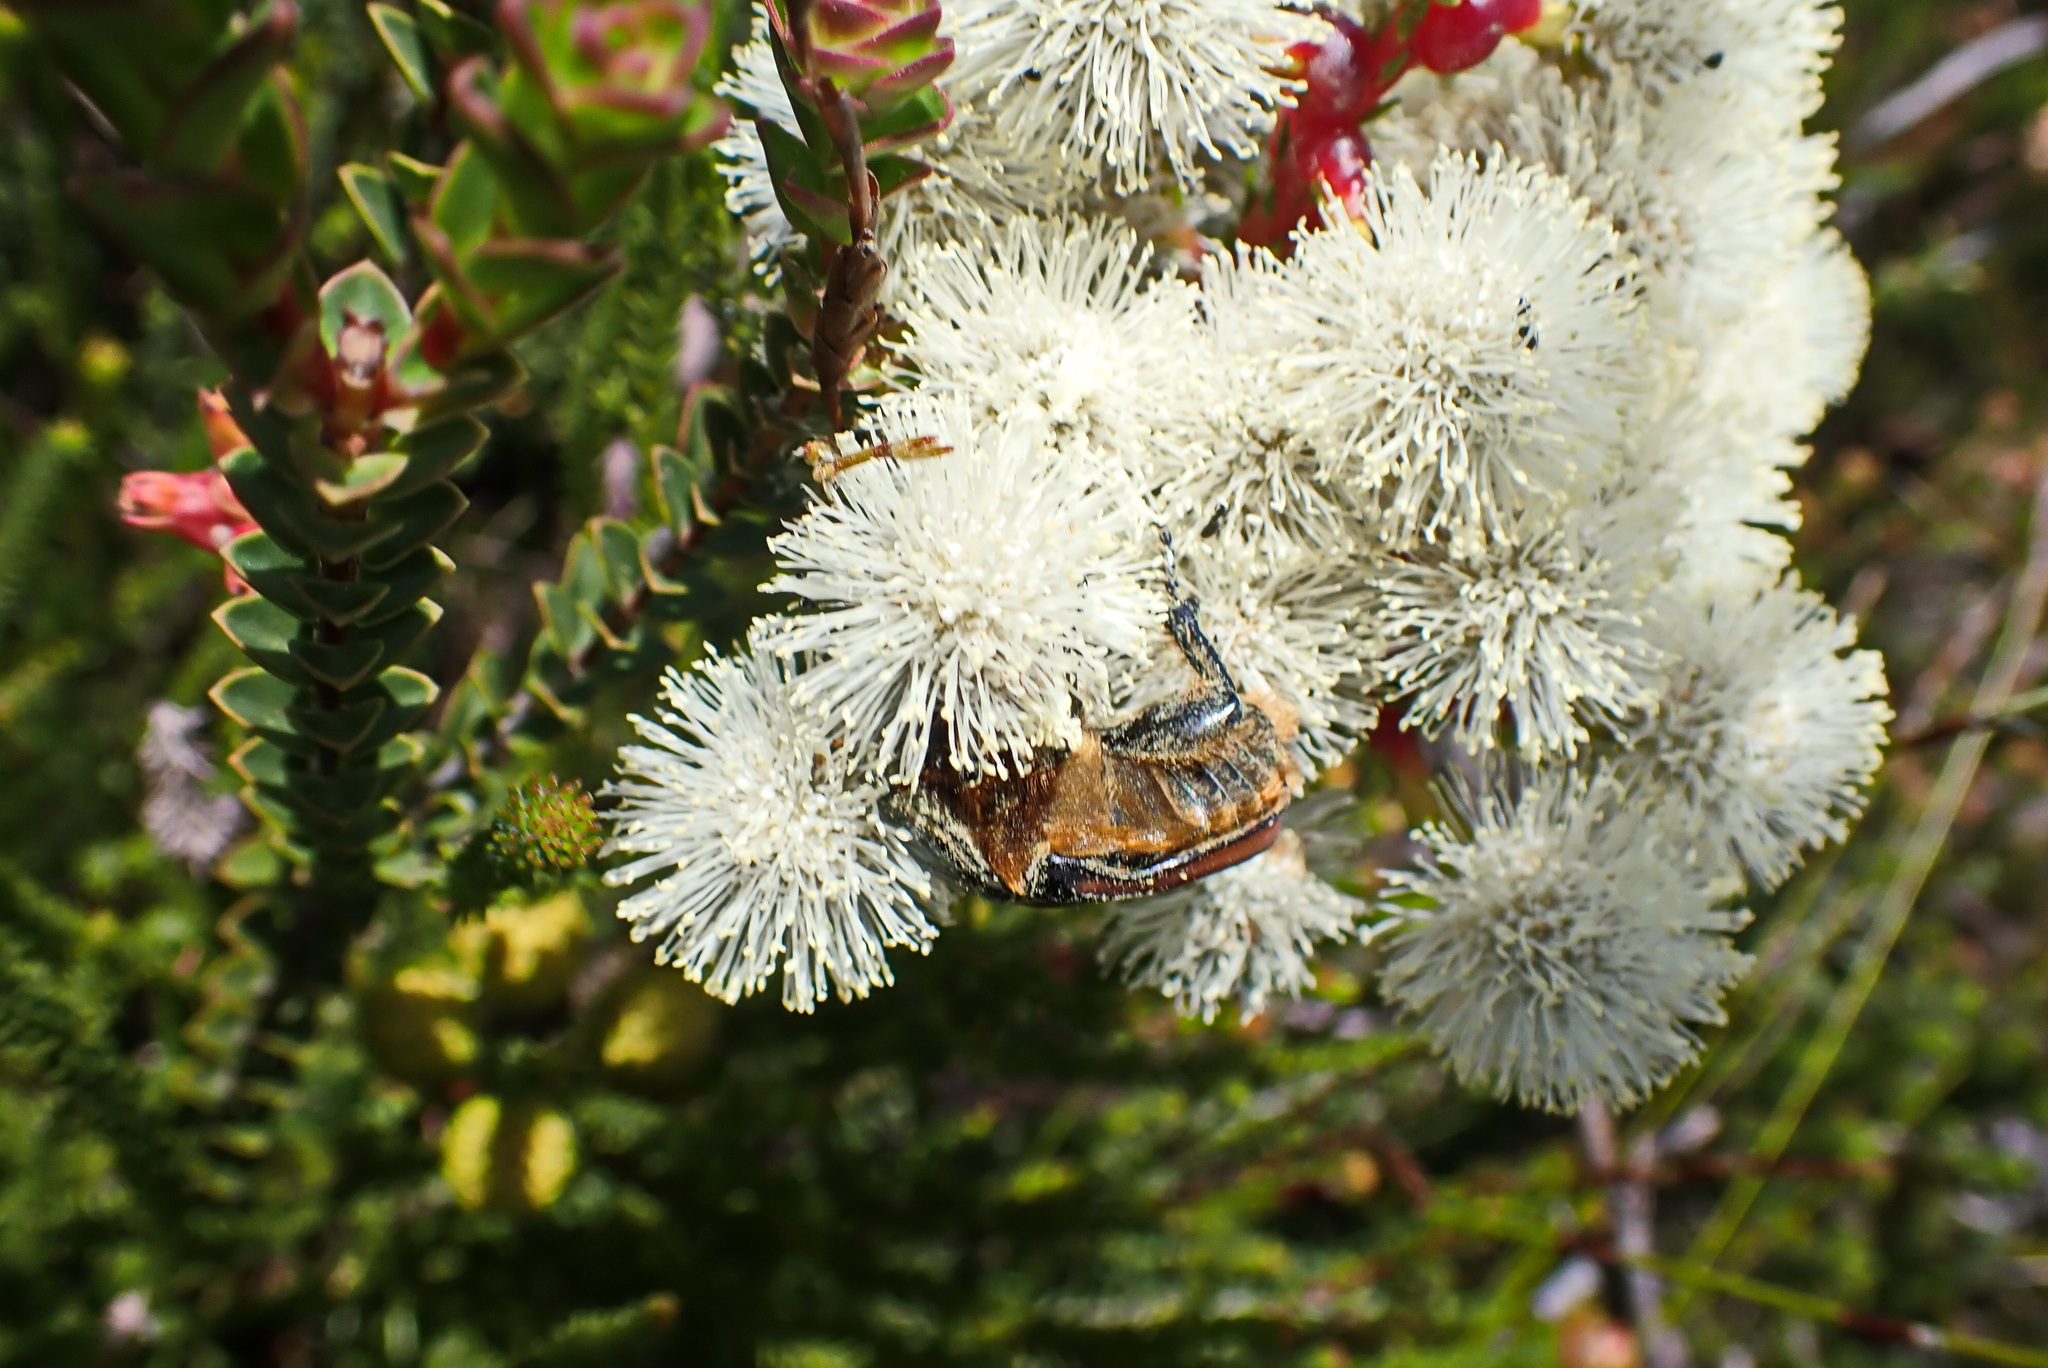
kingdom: Animalia
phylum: Arthropoda
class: Insecta
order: Coleoptera
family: Scarabaeidae
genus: Trichostetha
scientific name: Trichostetha capensis
